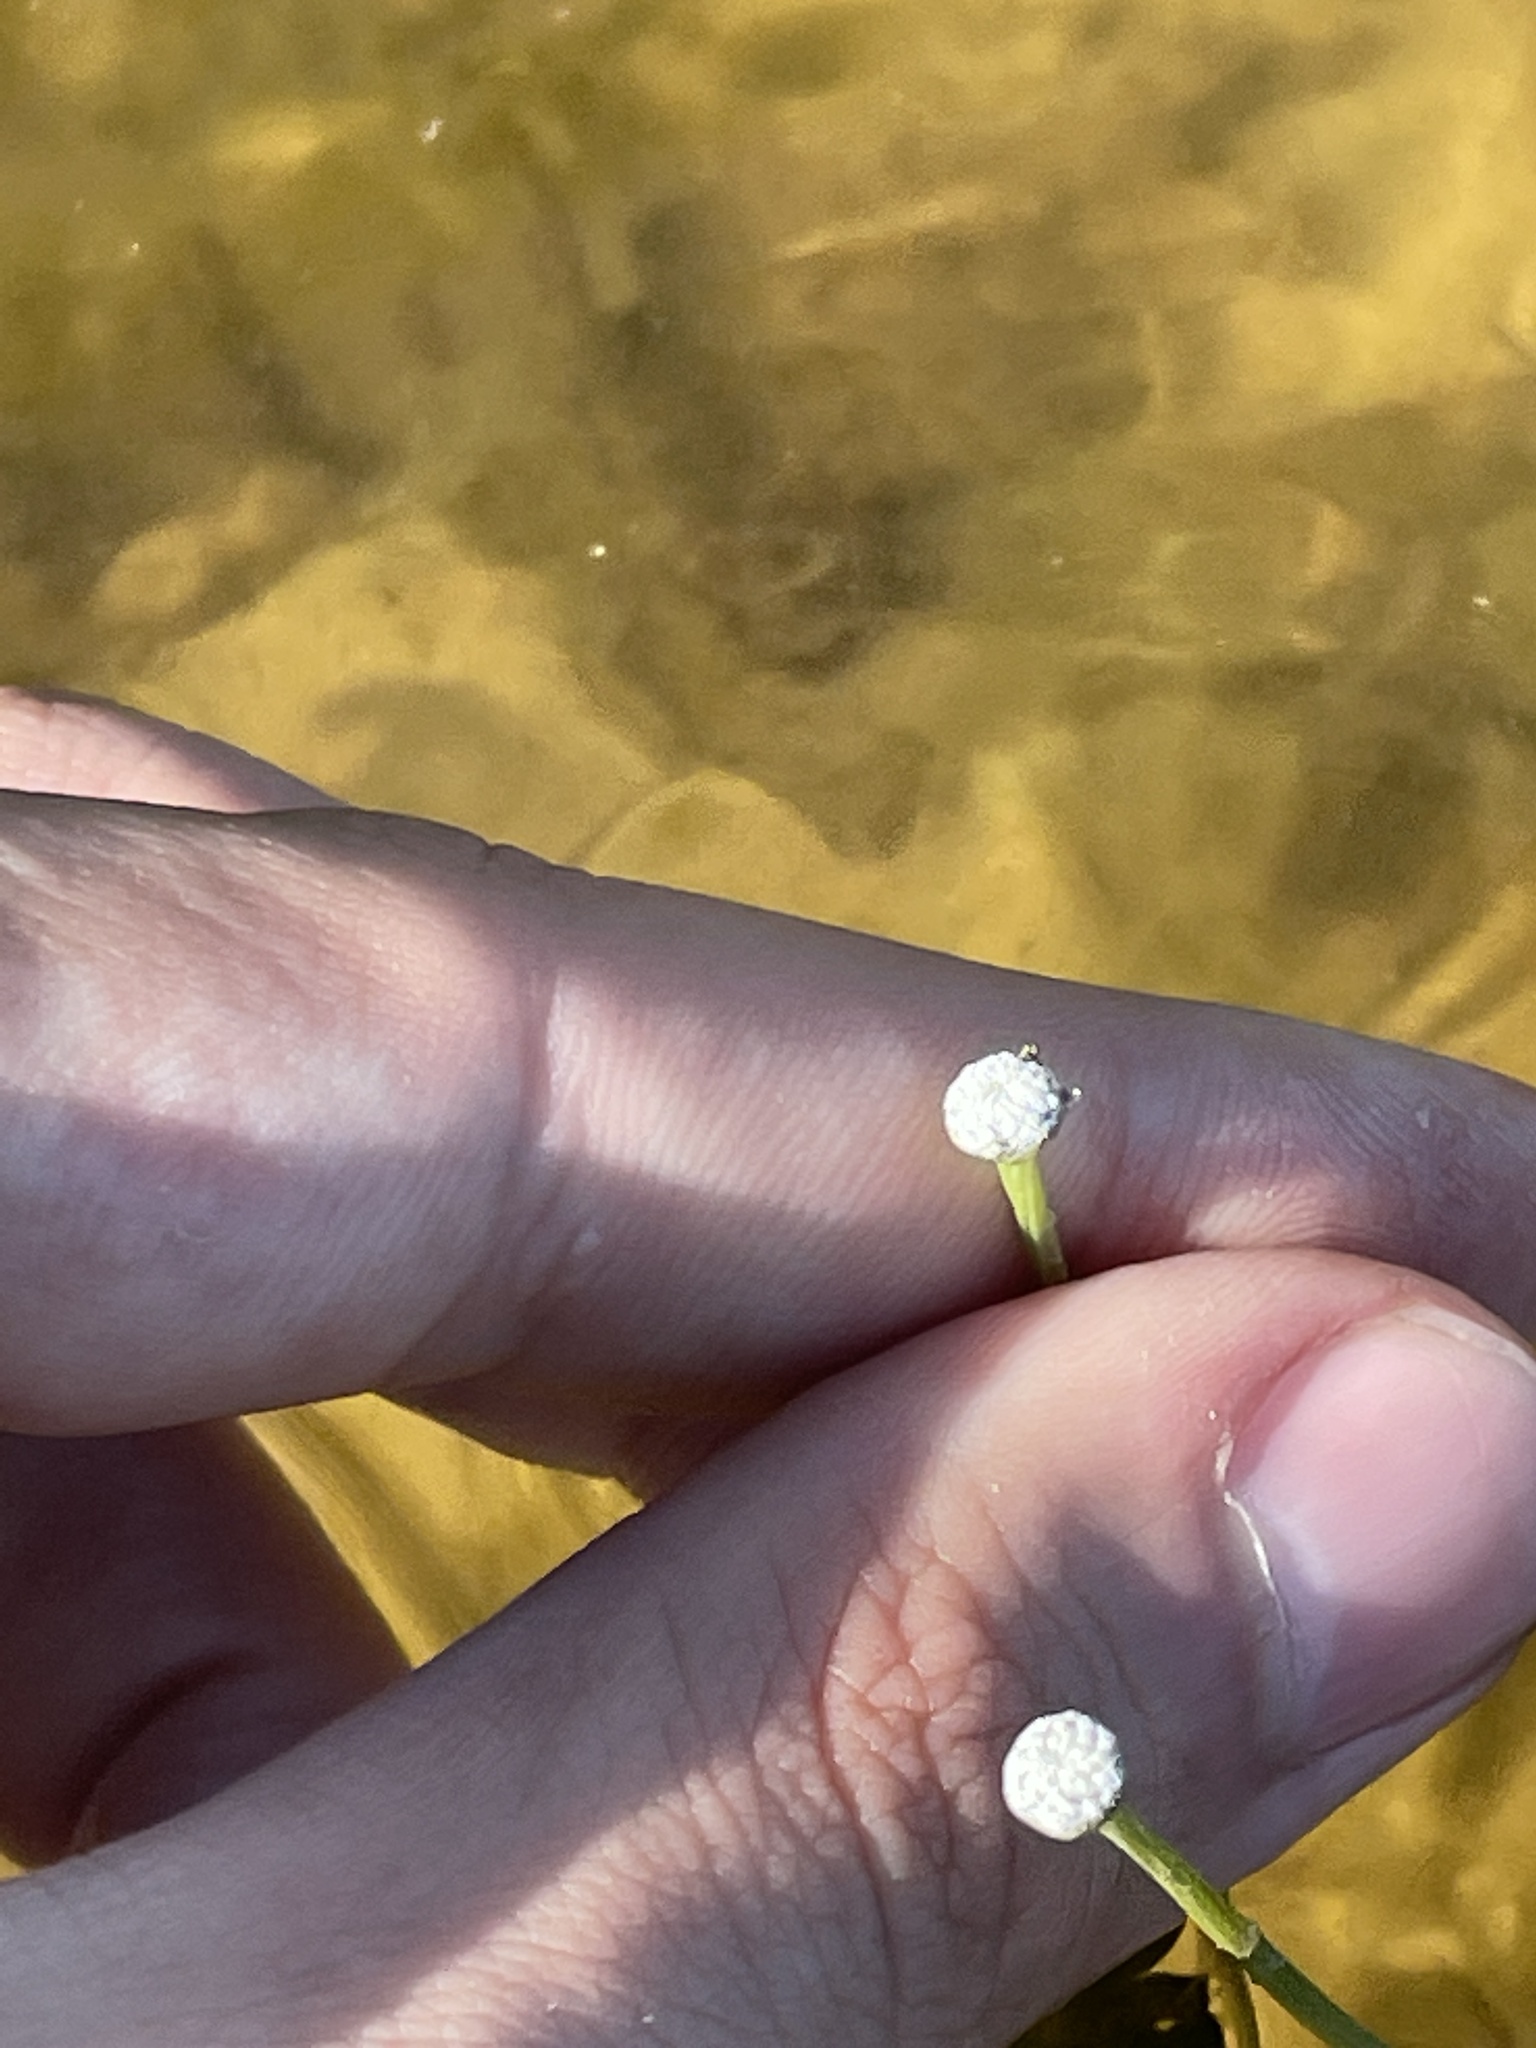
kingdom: Plantae
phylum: Tracheophyta
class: Liliopsida
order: Poales
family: Eriocaulaceae
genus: Eriocaulon
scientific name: Eriocaulon aquaticum
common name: Pipewort
